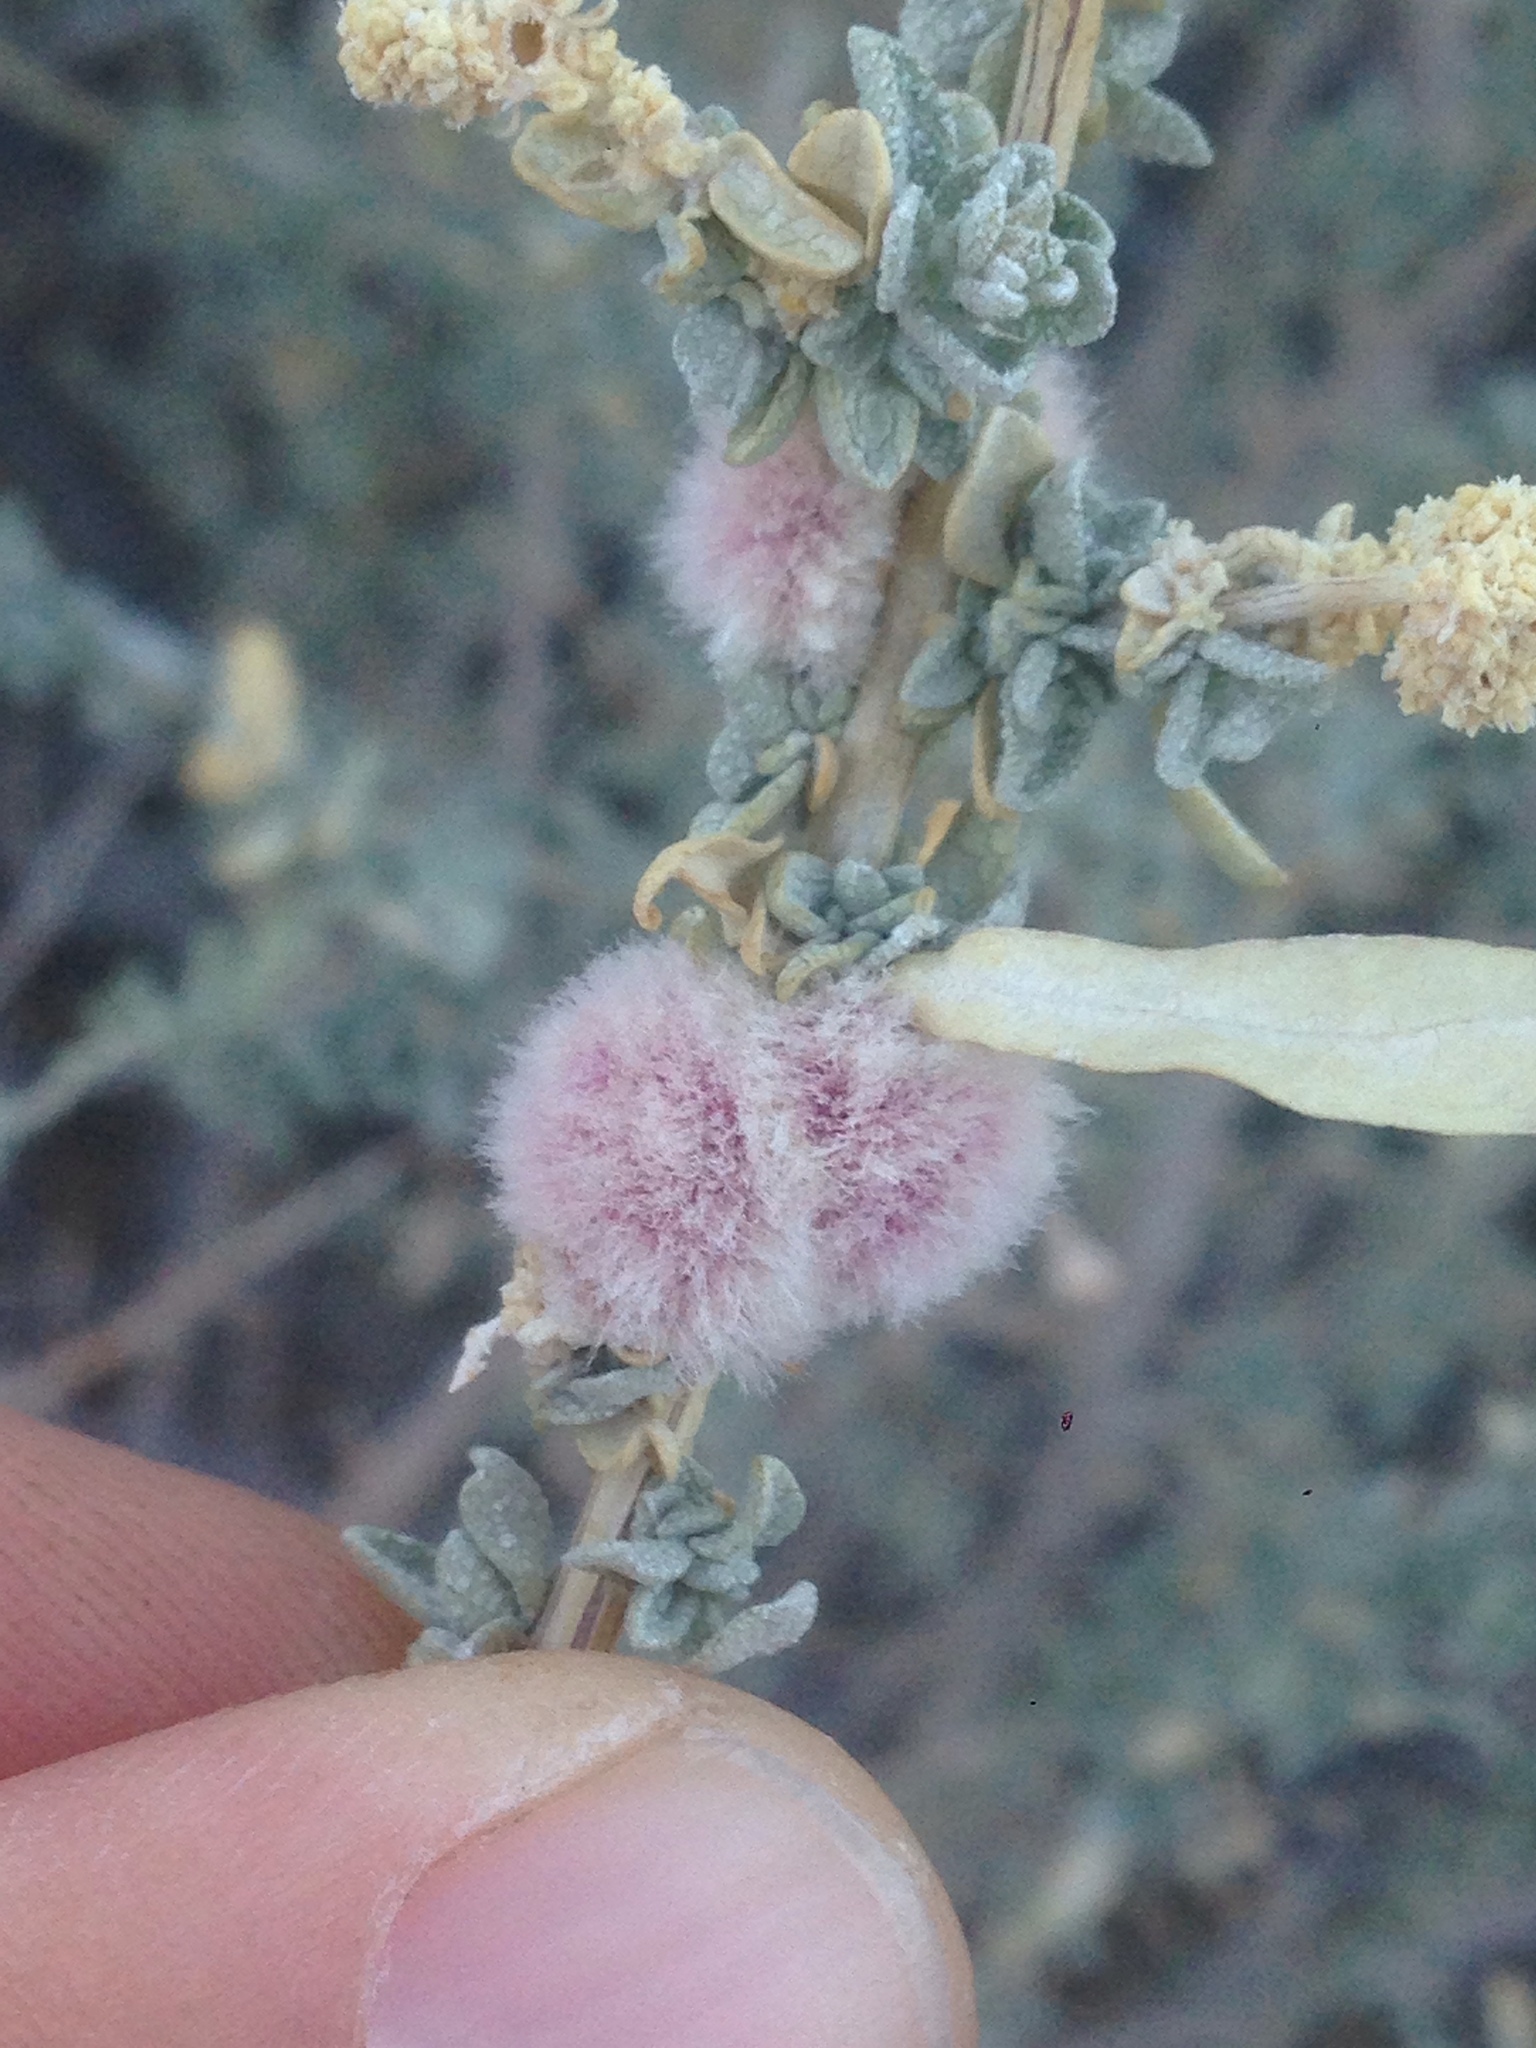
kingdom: Animalia
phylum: Arthropoda
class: Insecta
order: Diptera
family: Cecidomyiidae
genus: Asphondylia
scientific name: Asphondylia floccosa
